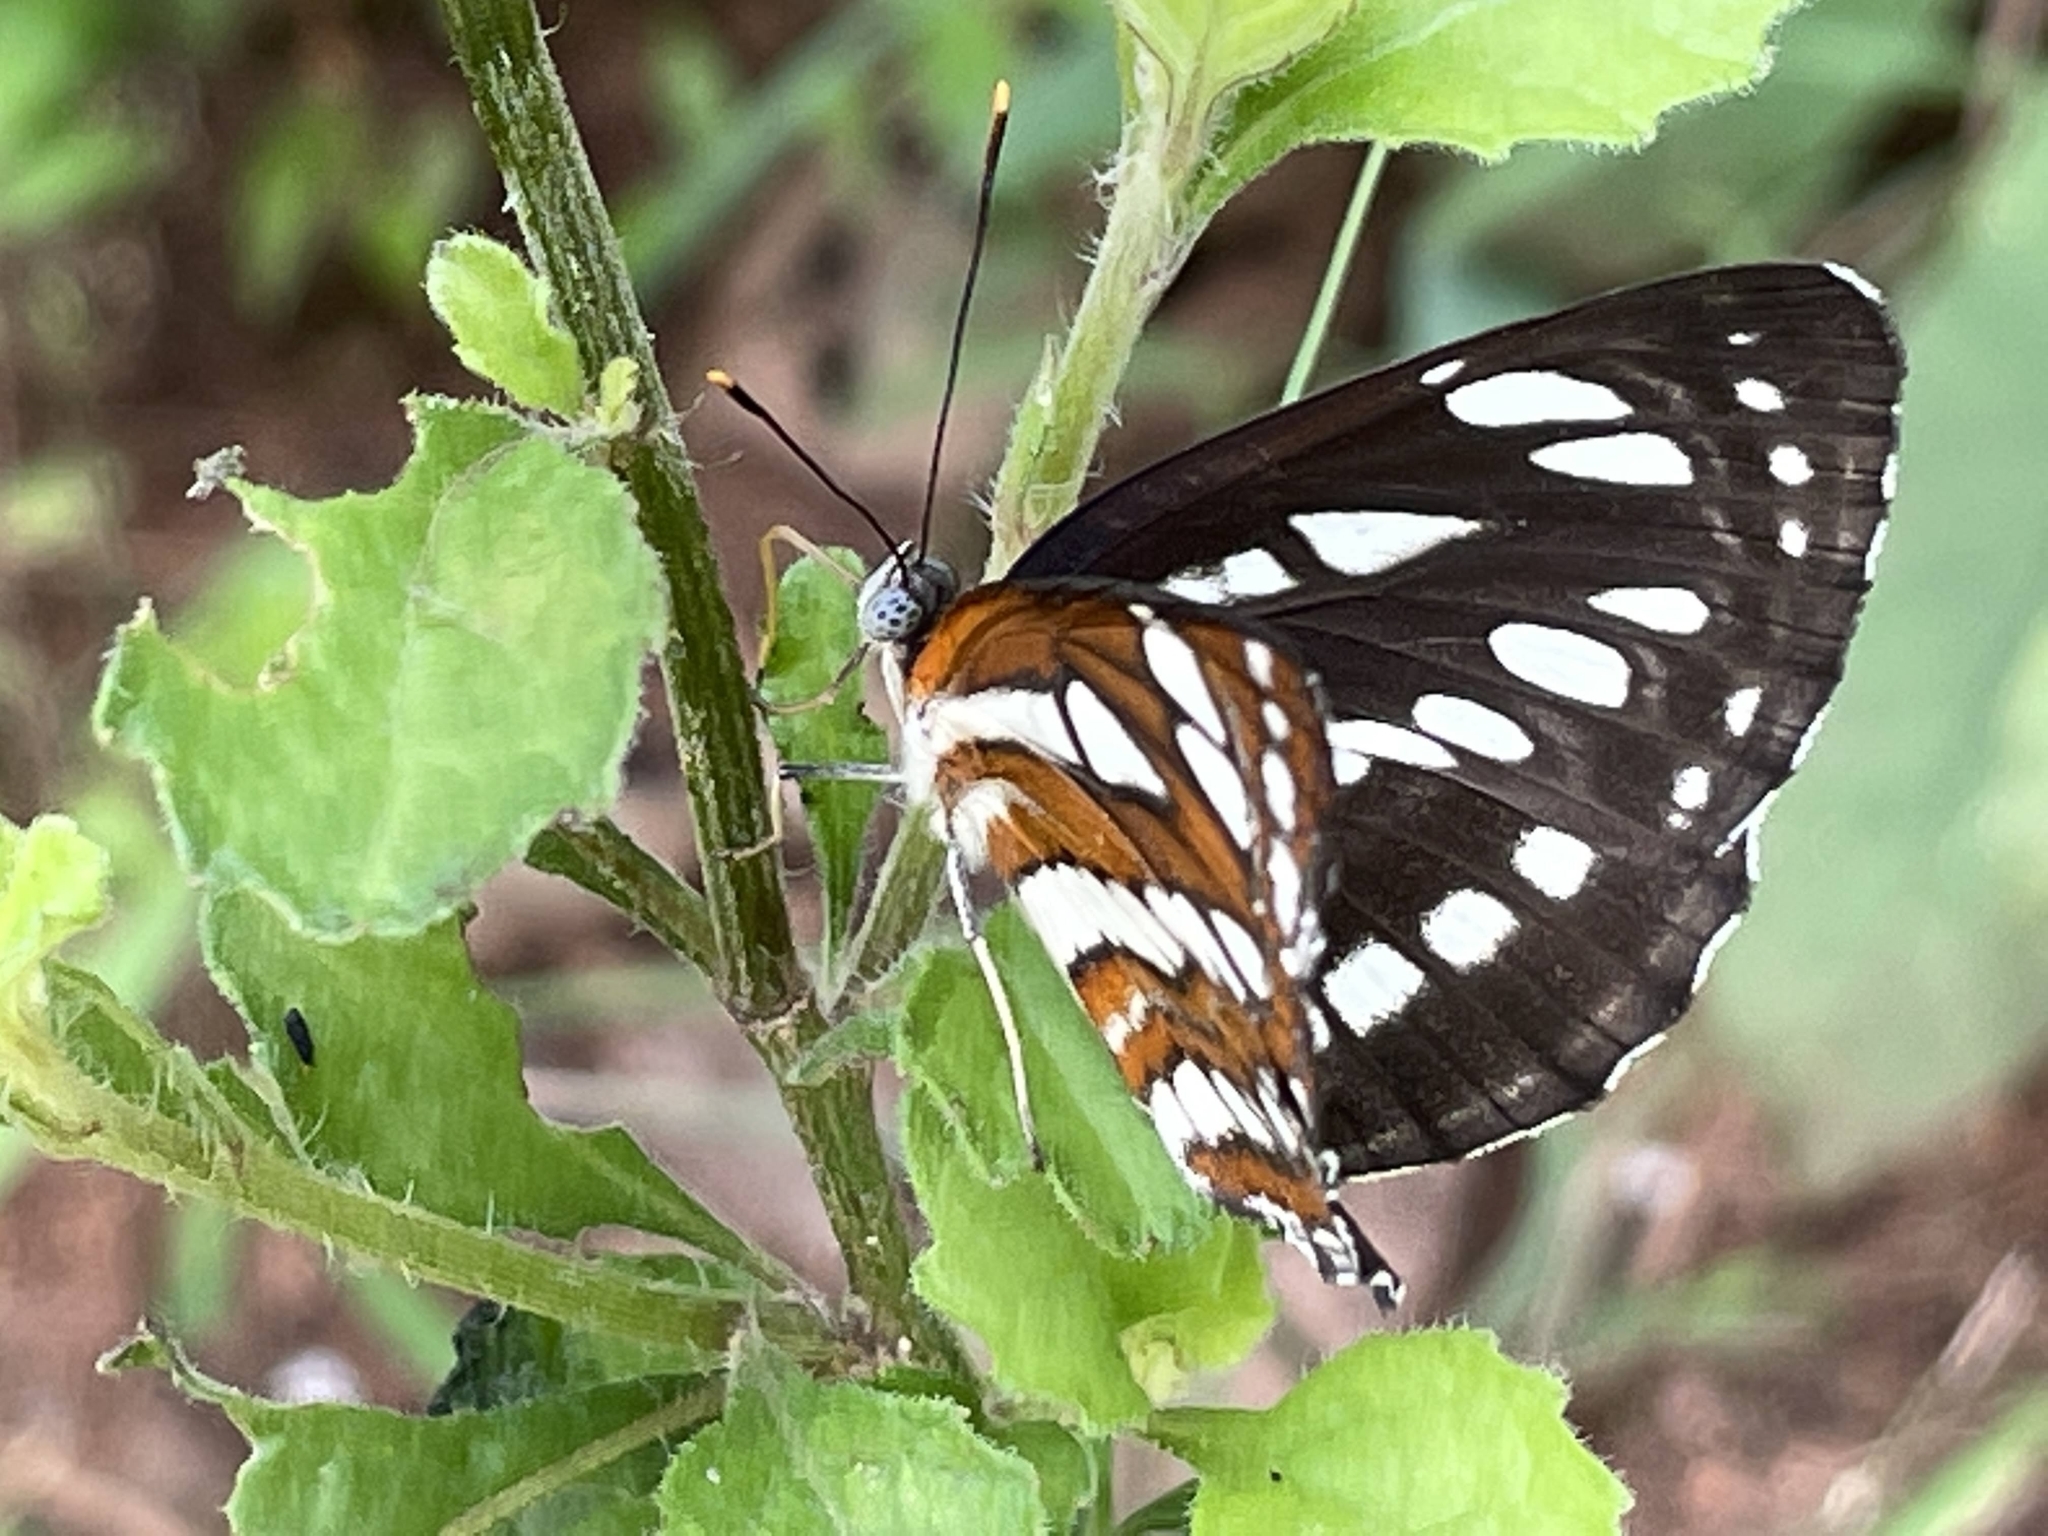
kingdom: Animalia
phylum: Arthropoda
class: Insecta
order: Lepidoptera
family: Nymphalidae
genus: Neptis
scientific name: Neptis hylas
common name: Common sailer
